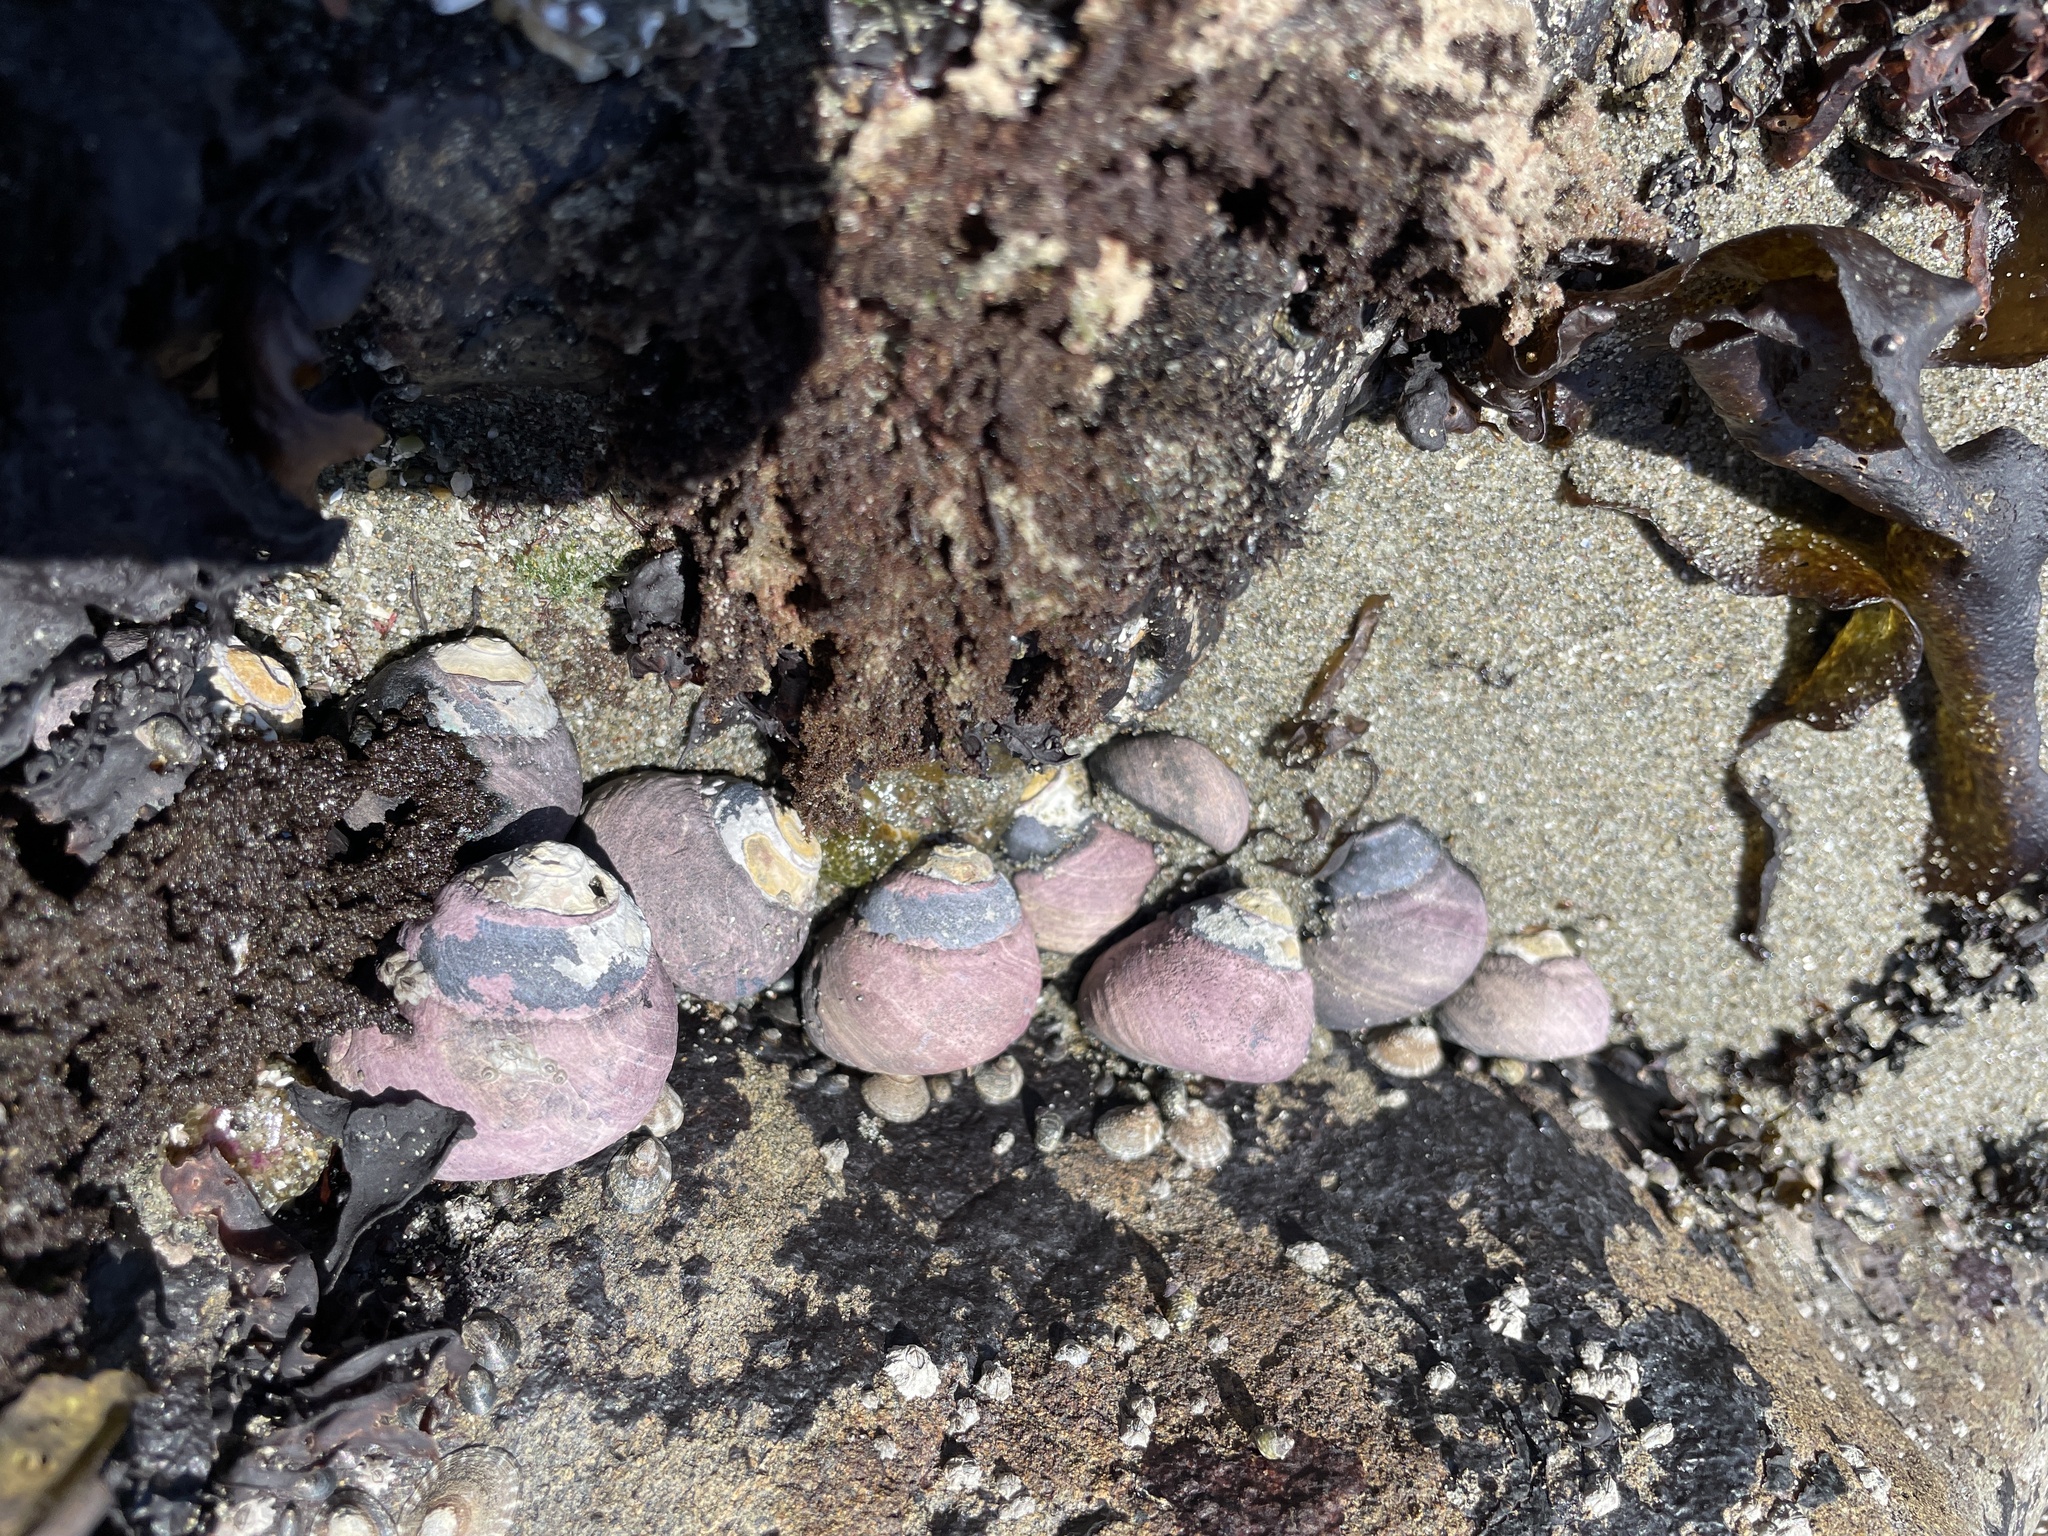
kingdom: Animalia
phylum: Mollusca
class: Gastropoda
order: Trochida
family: Tegulidae
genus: Tegula
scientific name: Tegula funebralis
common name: Black tegula
